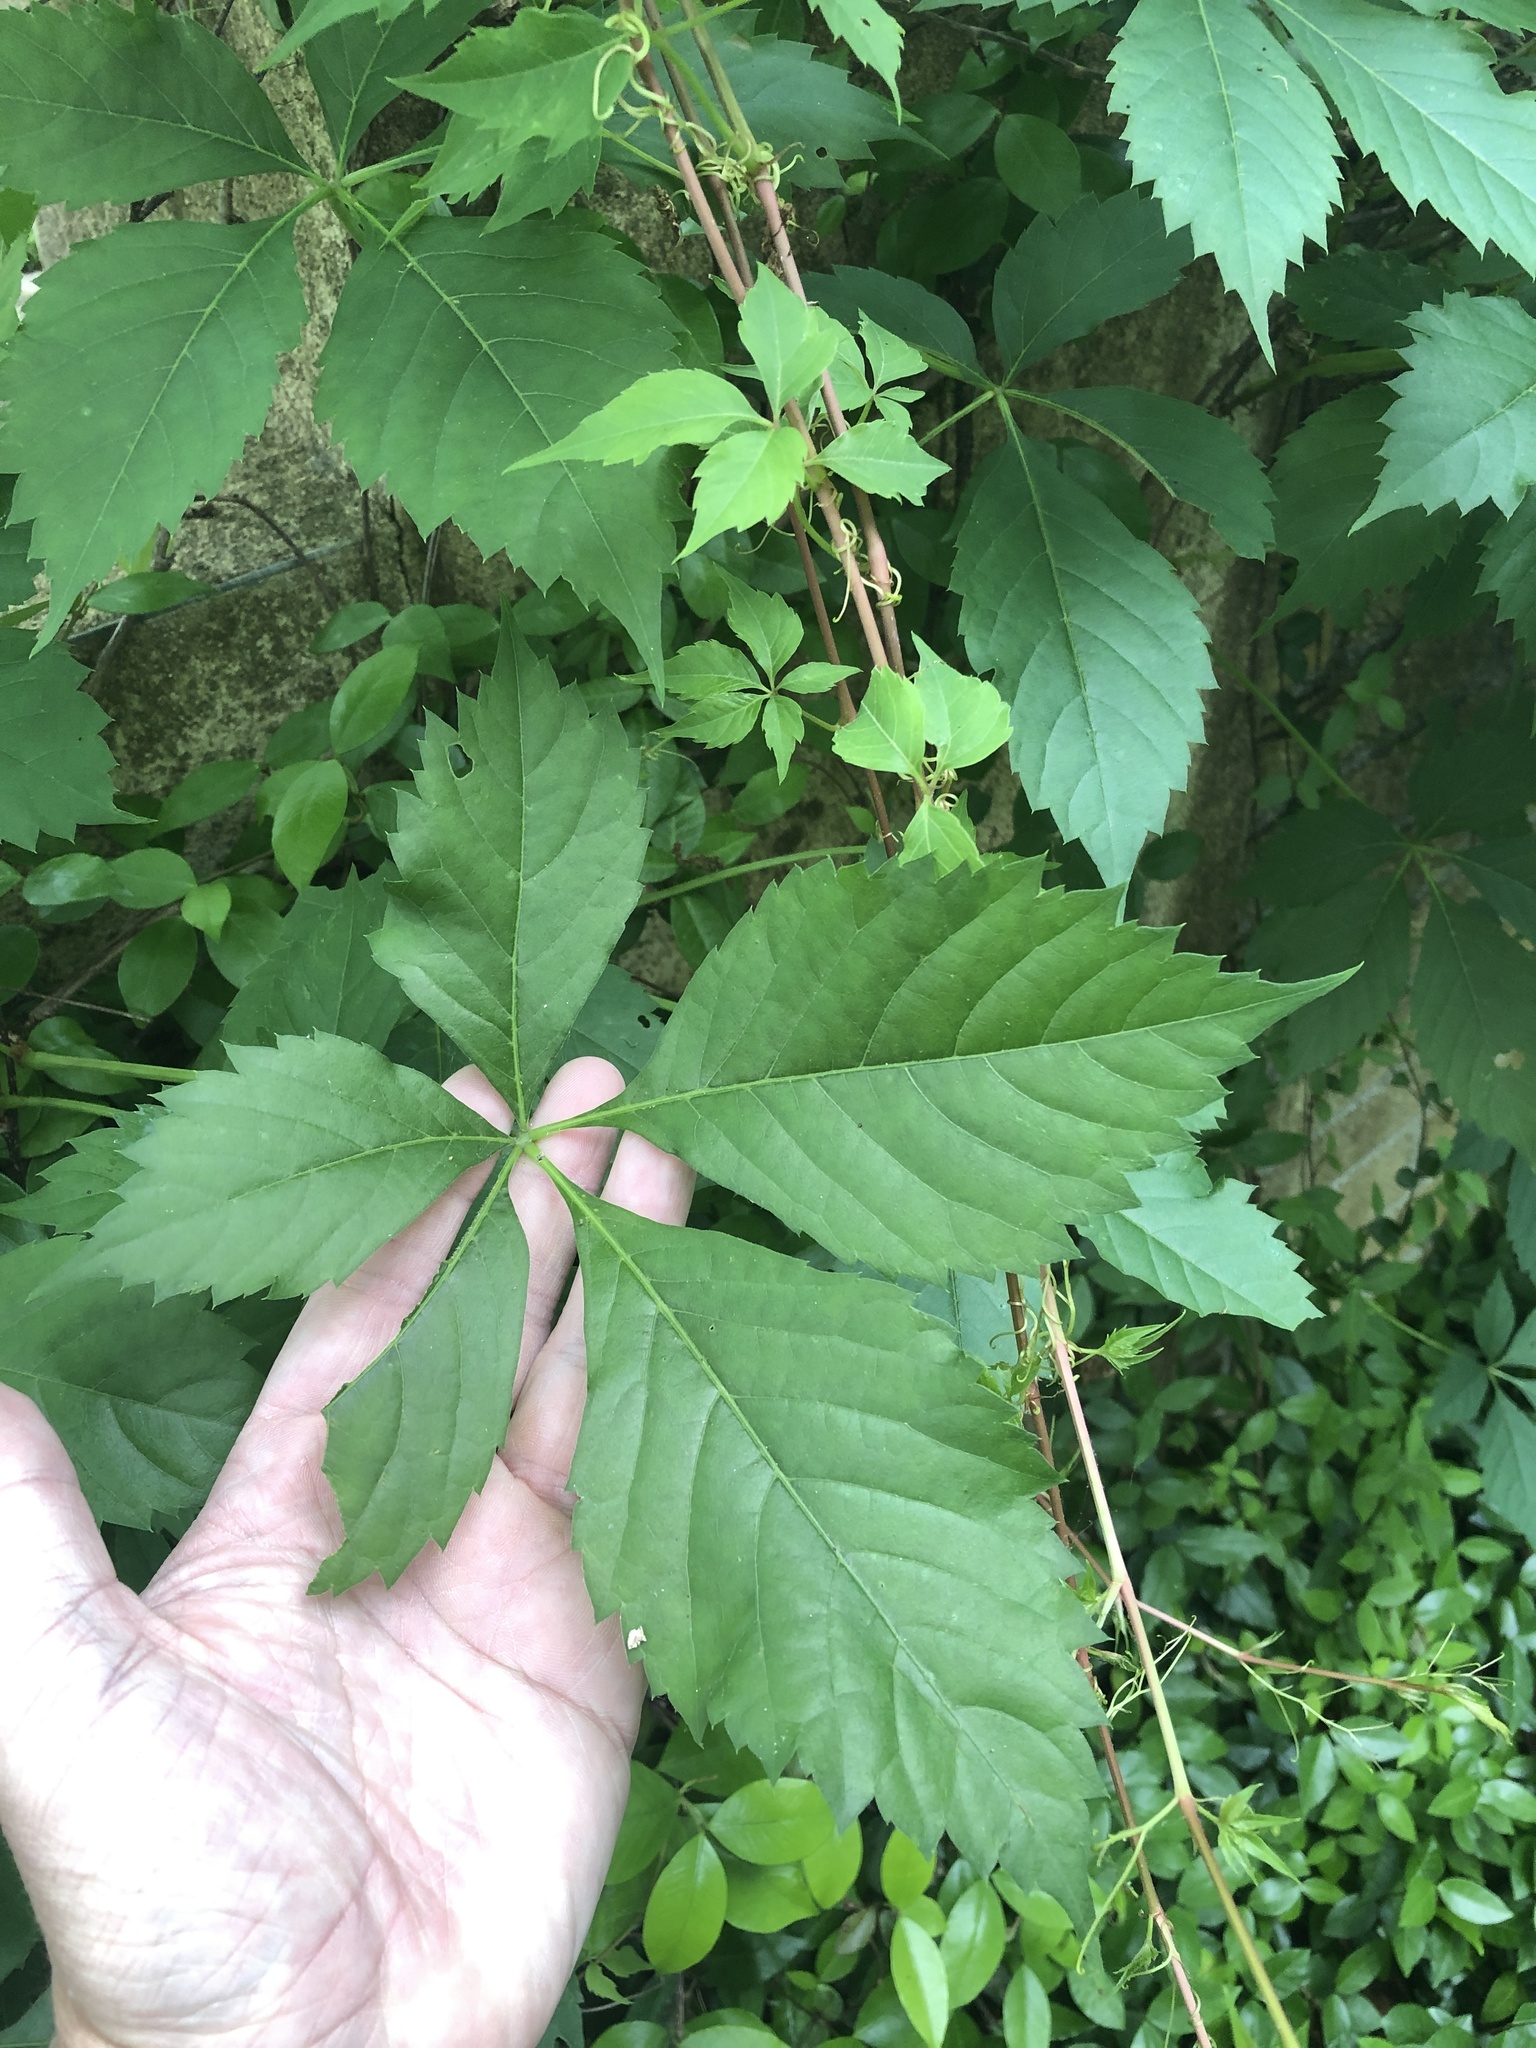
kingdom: Plantae
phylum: Tracheophyta
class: Magnoliopsida
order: Vitales
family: Vitaceae
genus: Parthenocissus
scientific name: Parthenocissus quinquefolia
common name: Virginia-creeper
